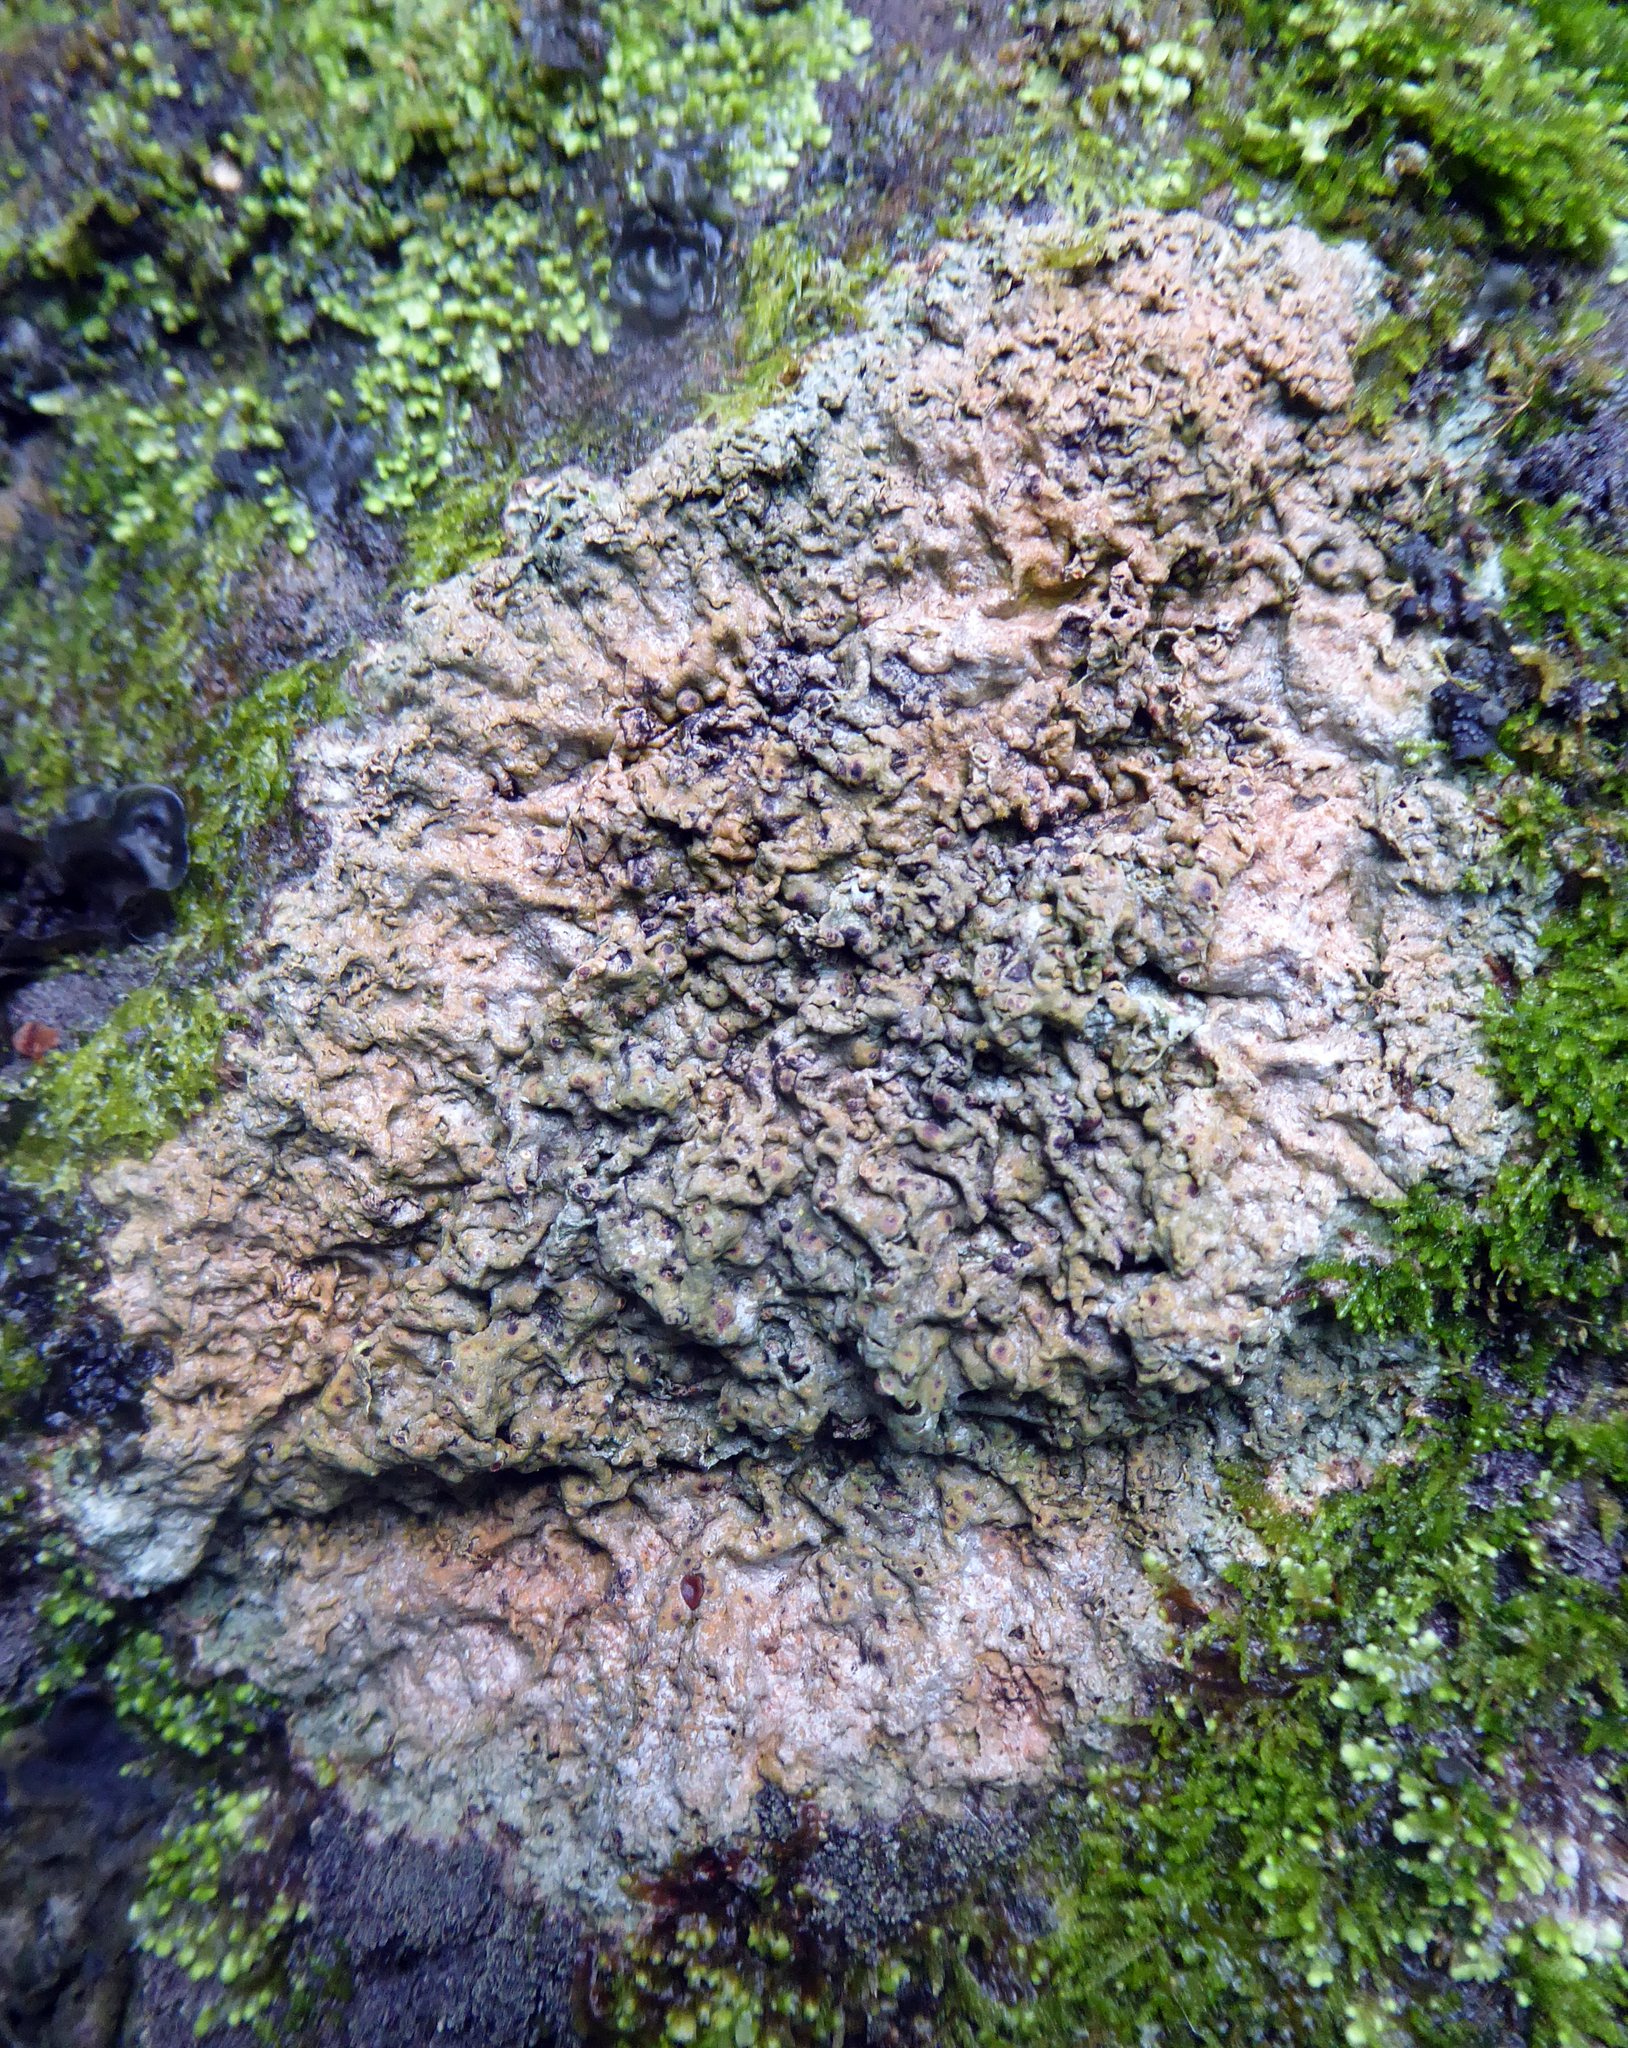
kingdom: Fungi
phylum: Ascomycota
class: Lecanoromycetes
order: Pertusariales
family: Pertusariaceae
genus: Porina
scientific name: Porina exocha
